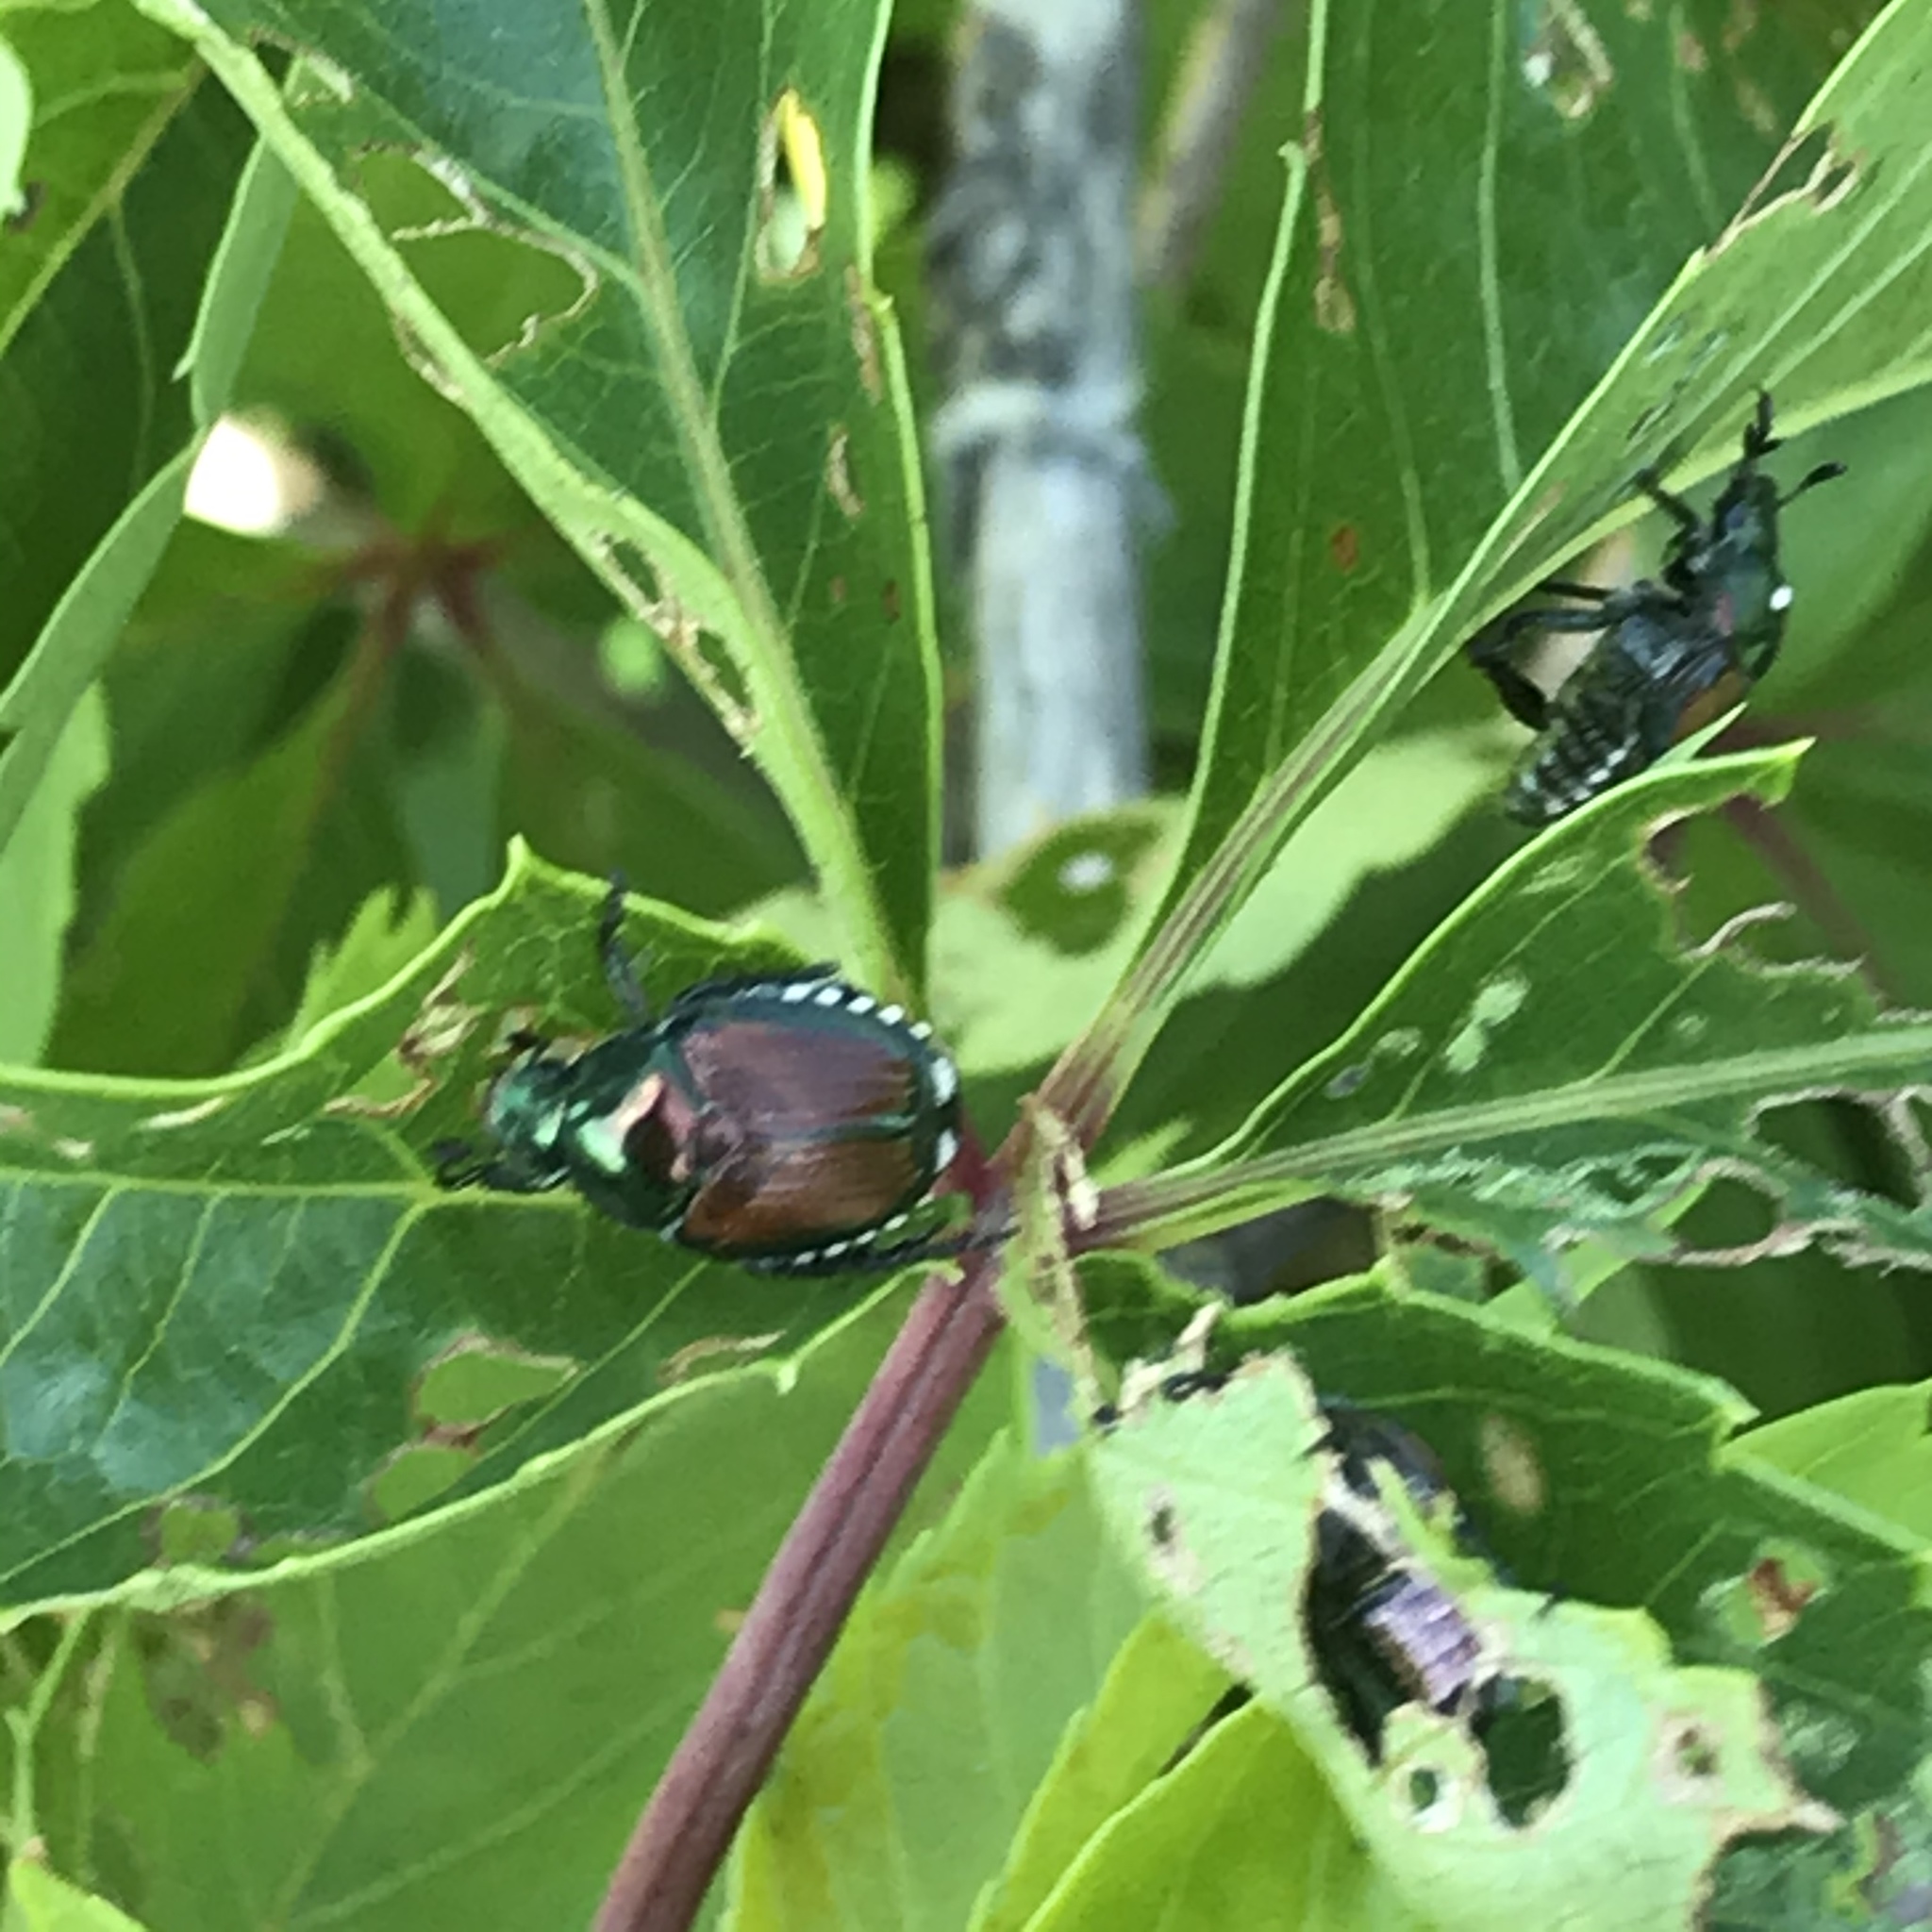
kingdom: Animalia
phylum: Arthropoda
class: Insecta
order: Coleoptera
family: Scarabaeidae
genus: Popillia
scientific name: Popillia japonica
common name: Japanese beetle
